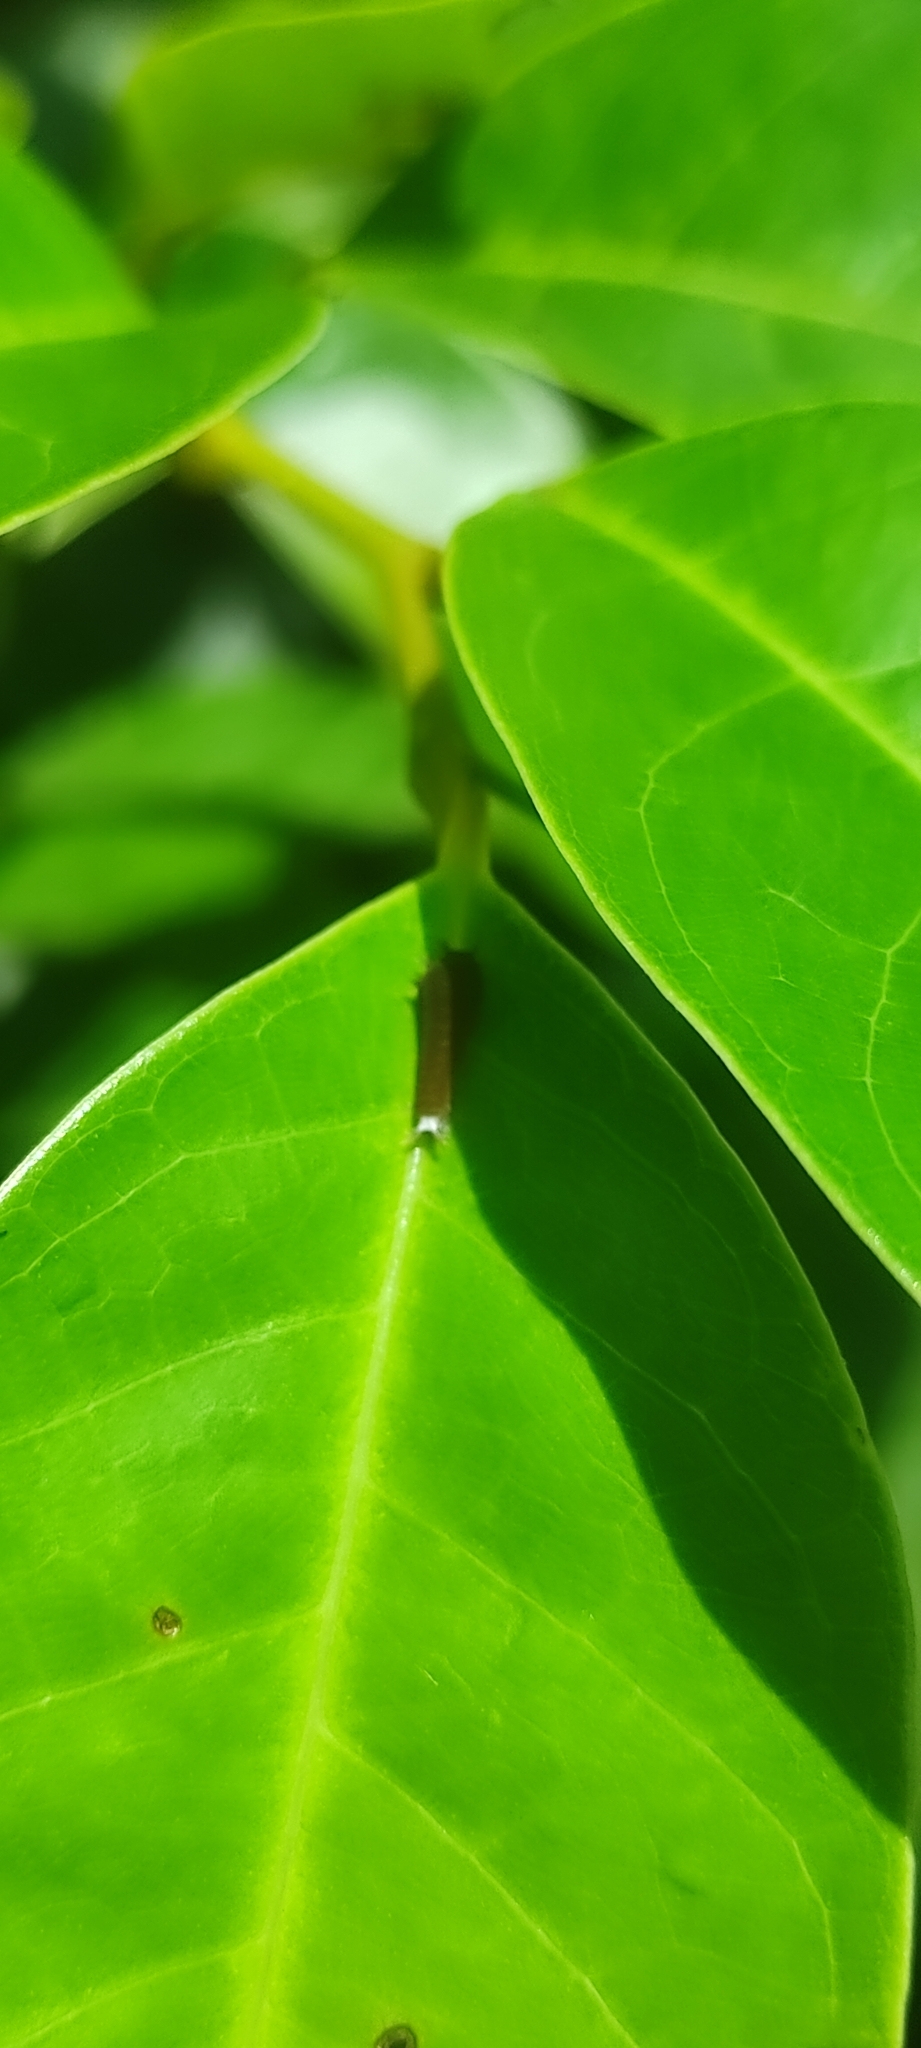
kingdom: Animalia
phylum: Arthropoda
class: Insecta
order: Lepidoptera
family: Papilionidae
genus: Graphium
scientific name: Graphium doson
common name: Common jay
